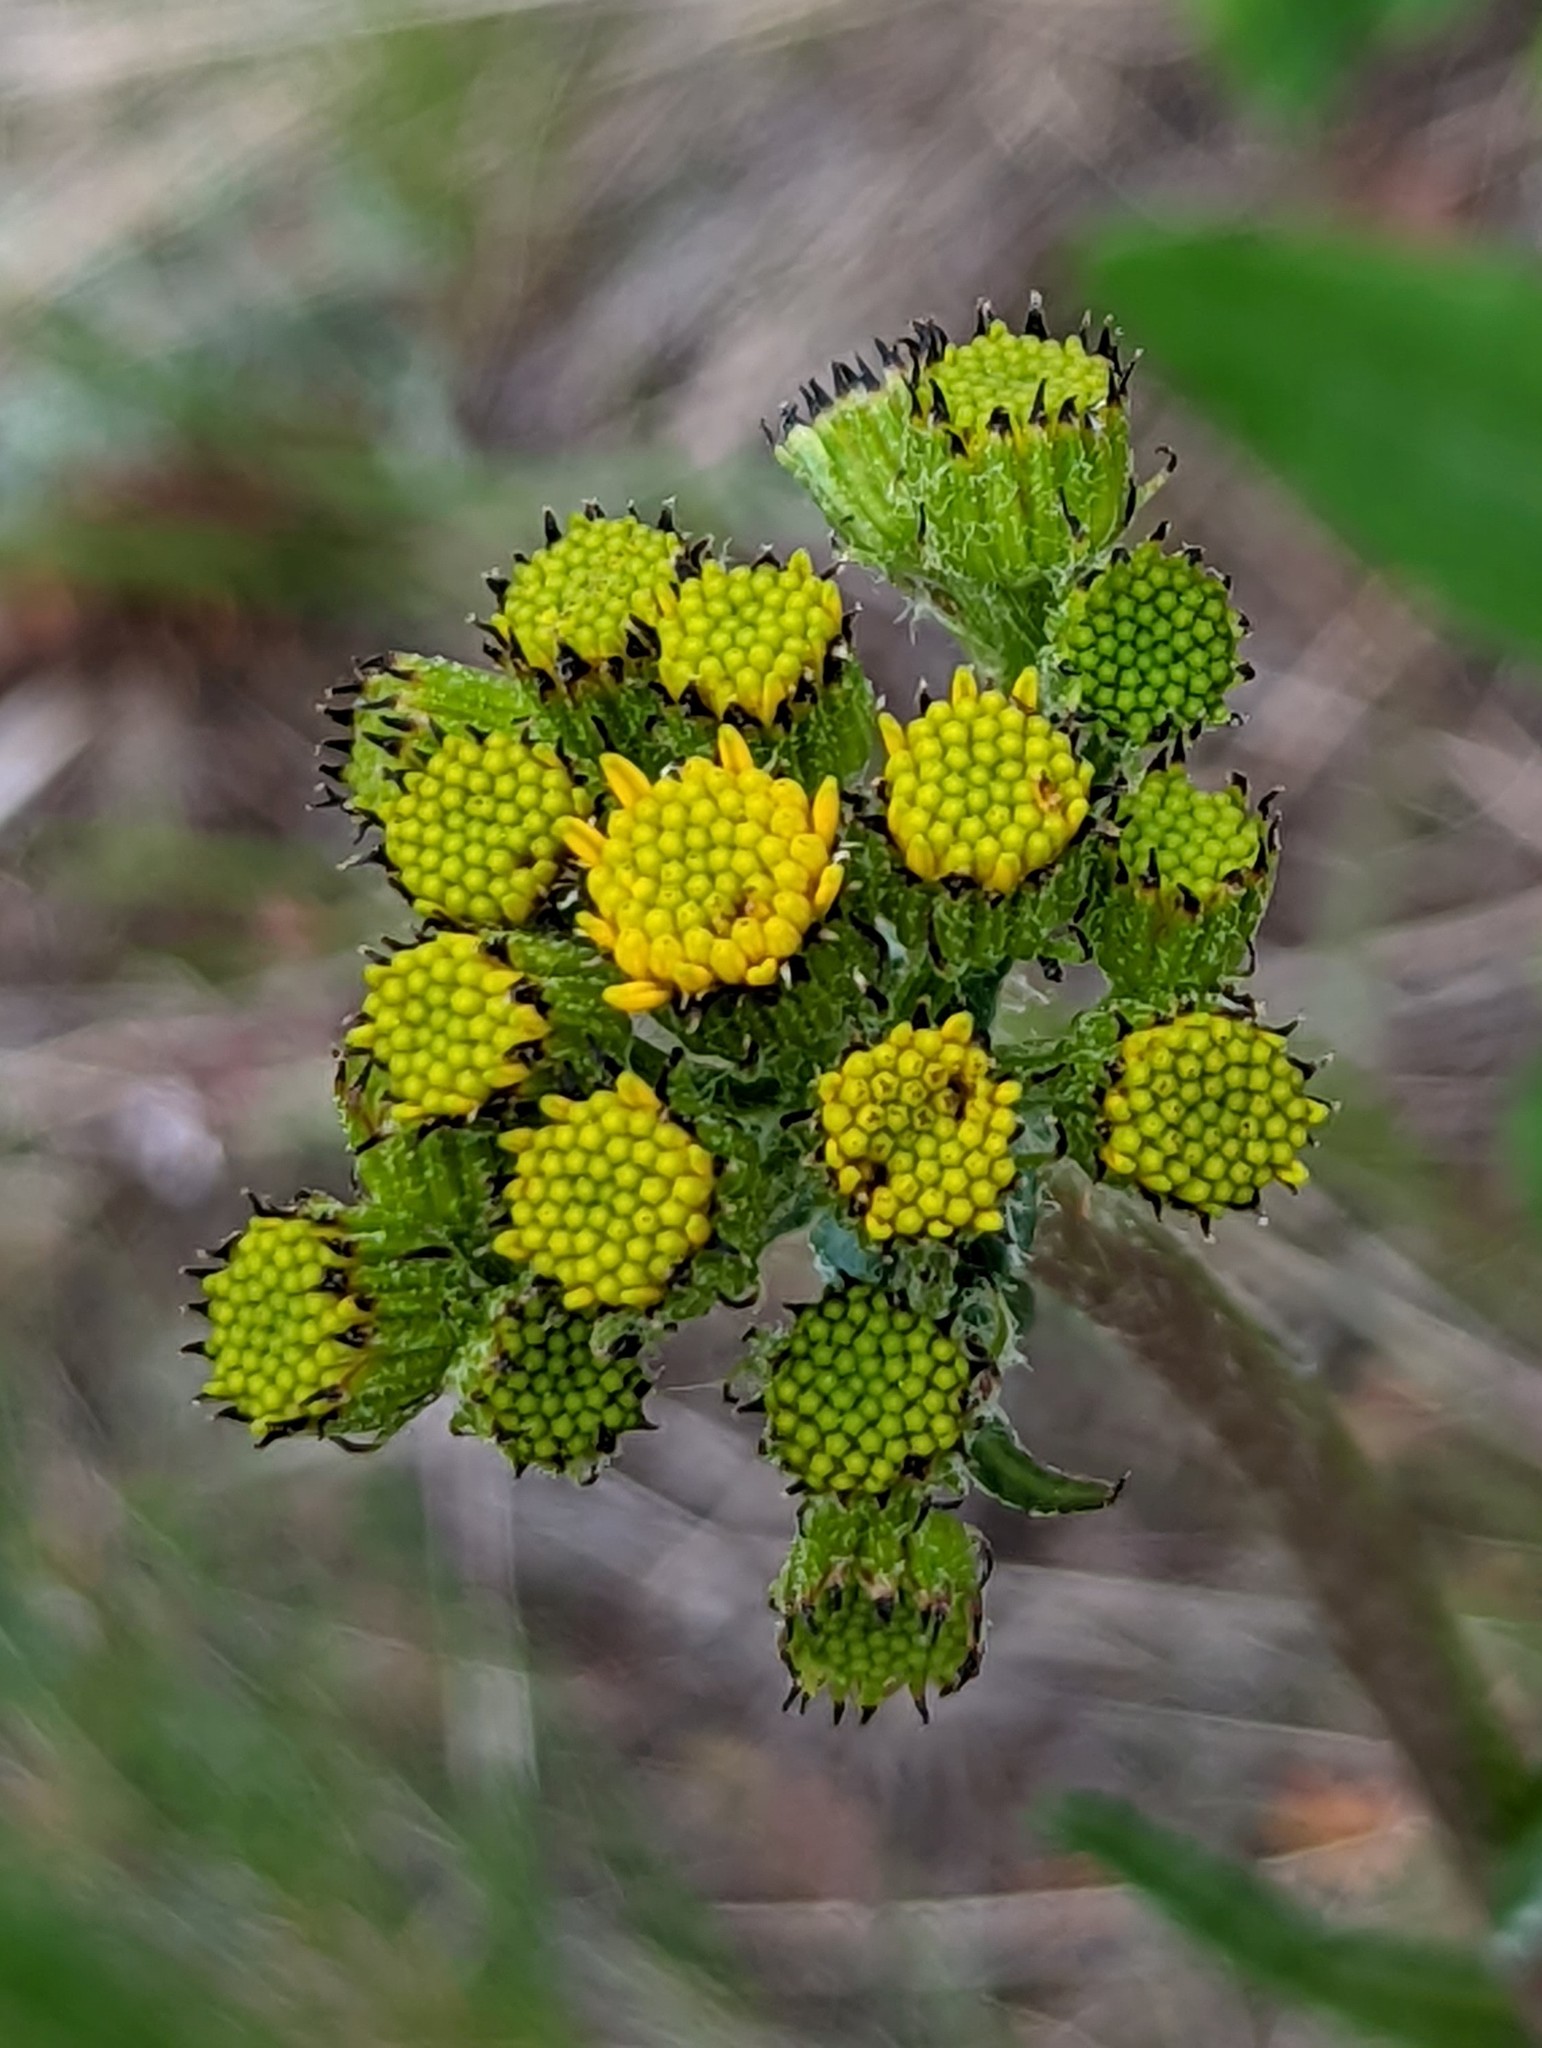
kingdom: Plantae
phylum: Tracheophyta
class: Magnoliopsida
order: Asterales
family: Asteraceae
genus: Senecio
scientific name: Senecio integerrimus
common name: Gaugeplant
